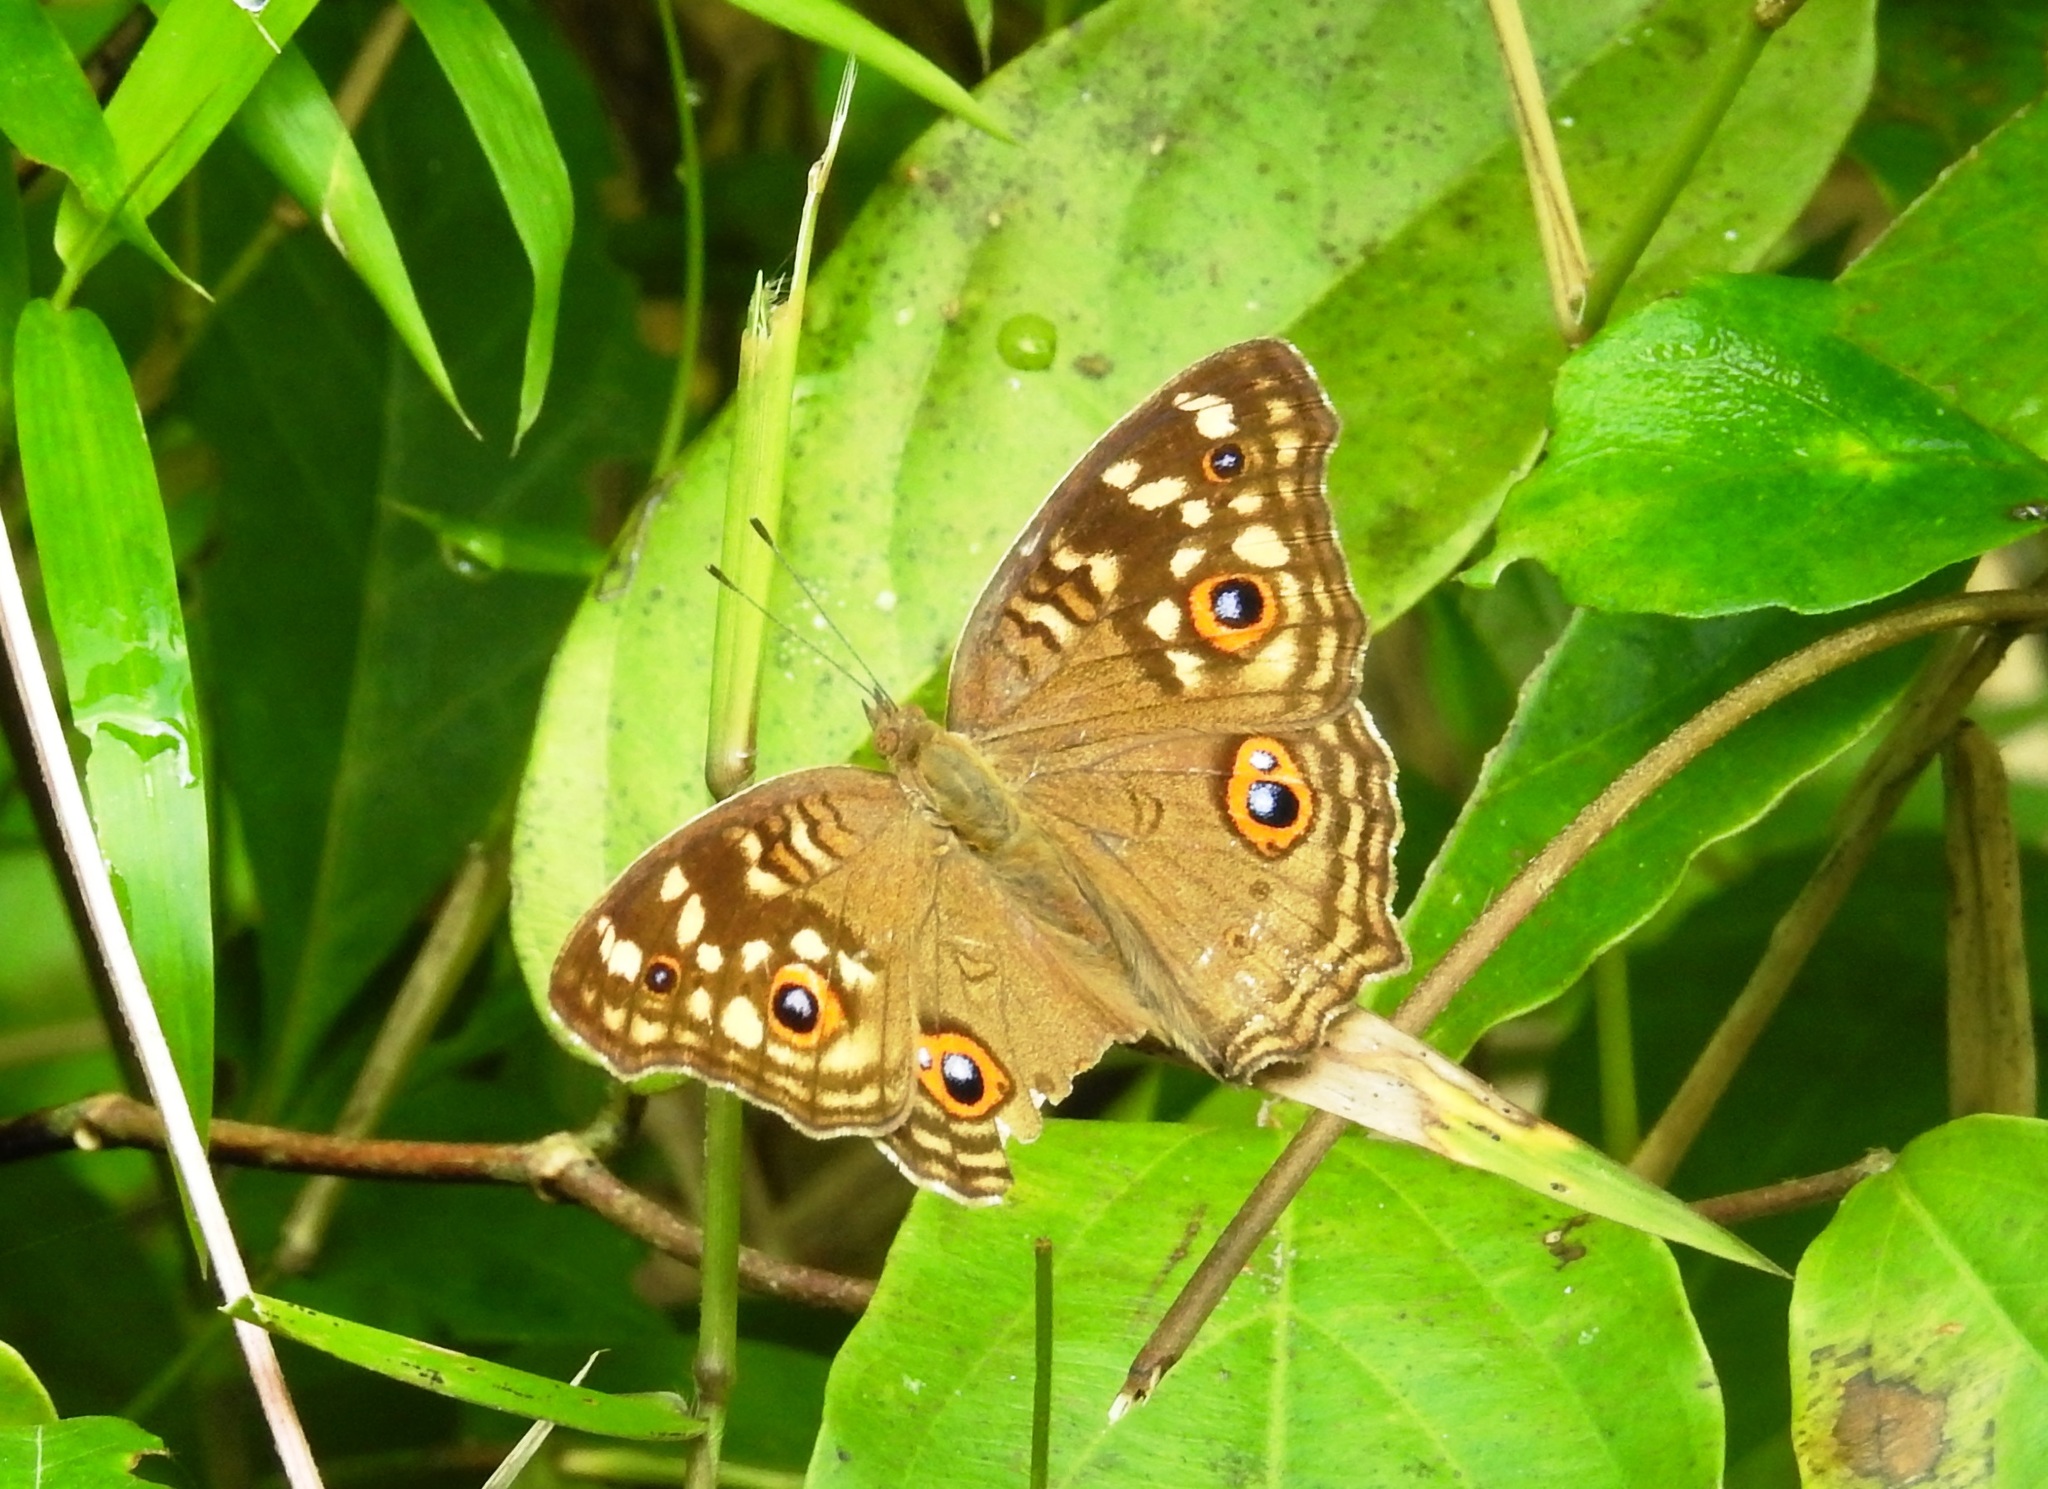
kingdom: Animalia
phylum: Arthropoda
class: Insecta
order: Lepidoptera
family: Nymphalidae
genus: Junonia
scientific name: Junonia lemonias
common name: Lemon pansy
